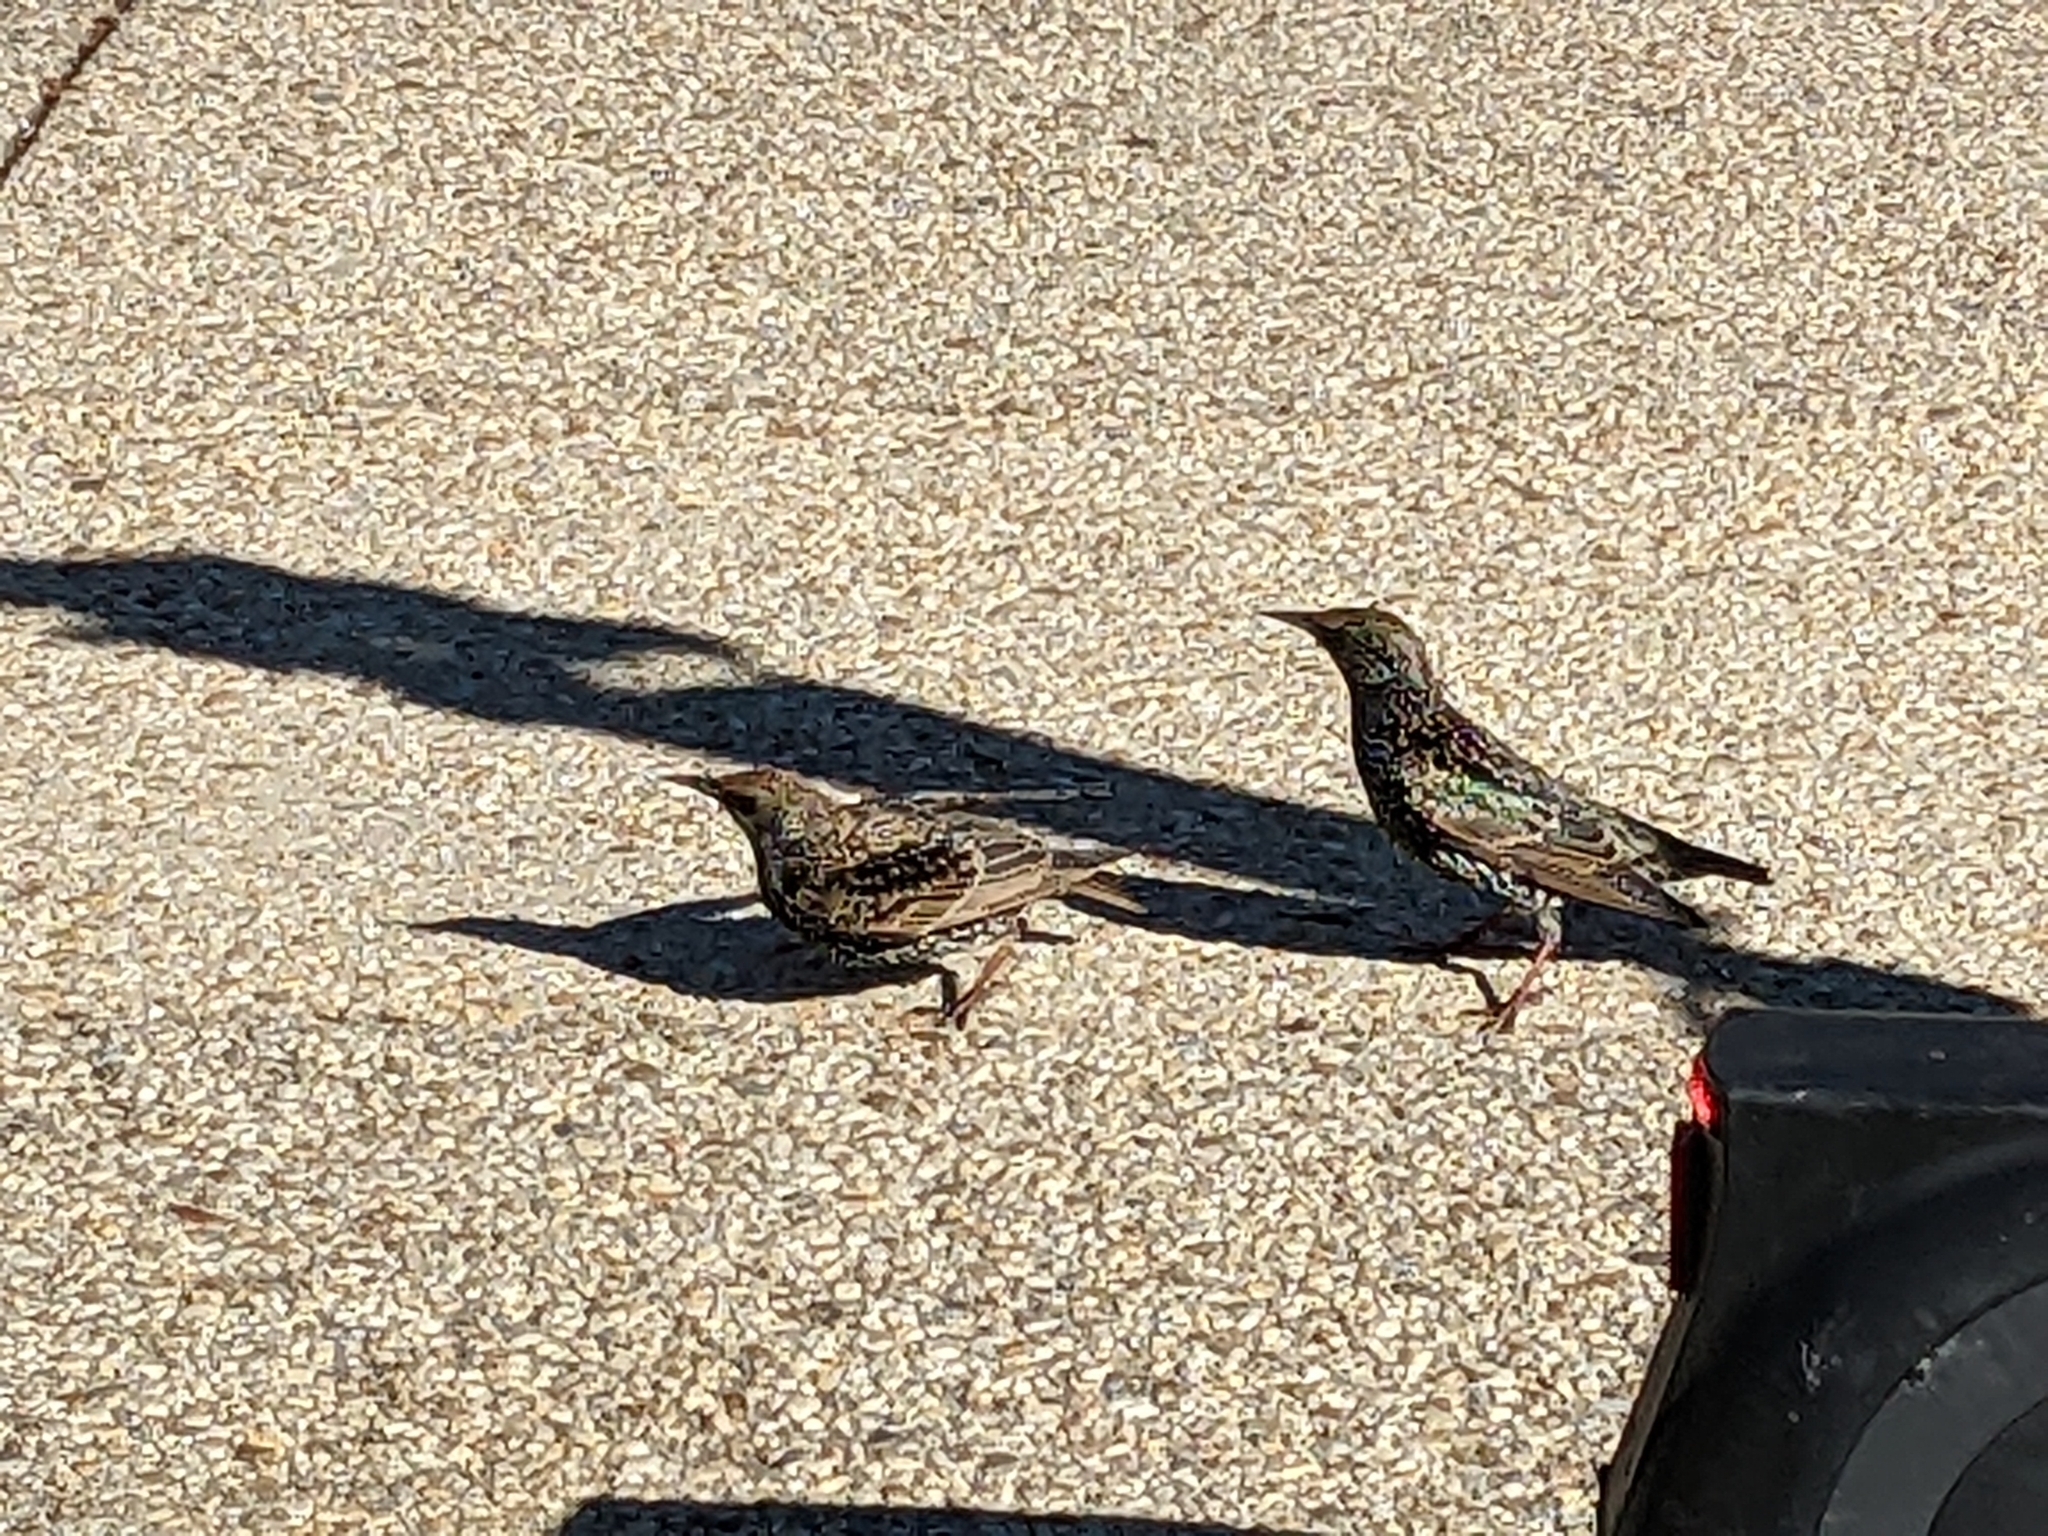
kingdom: Animalia
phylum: Chordata
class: Aves
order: Passeriformes
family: Sturnidae
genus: Sturnus
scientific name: Sturnus vulgaris
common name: Common starling
